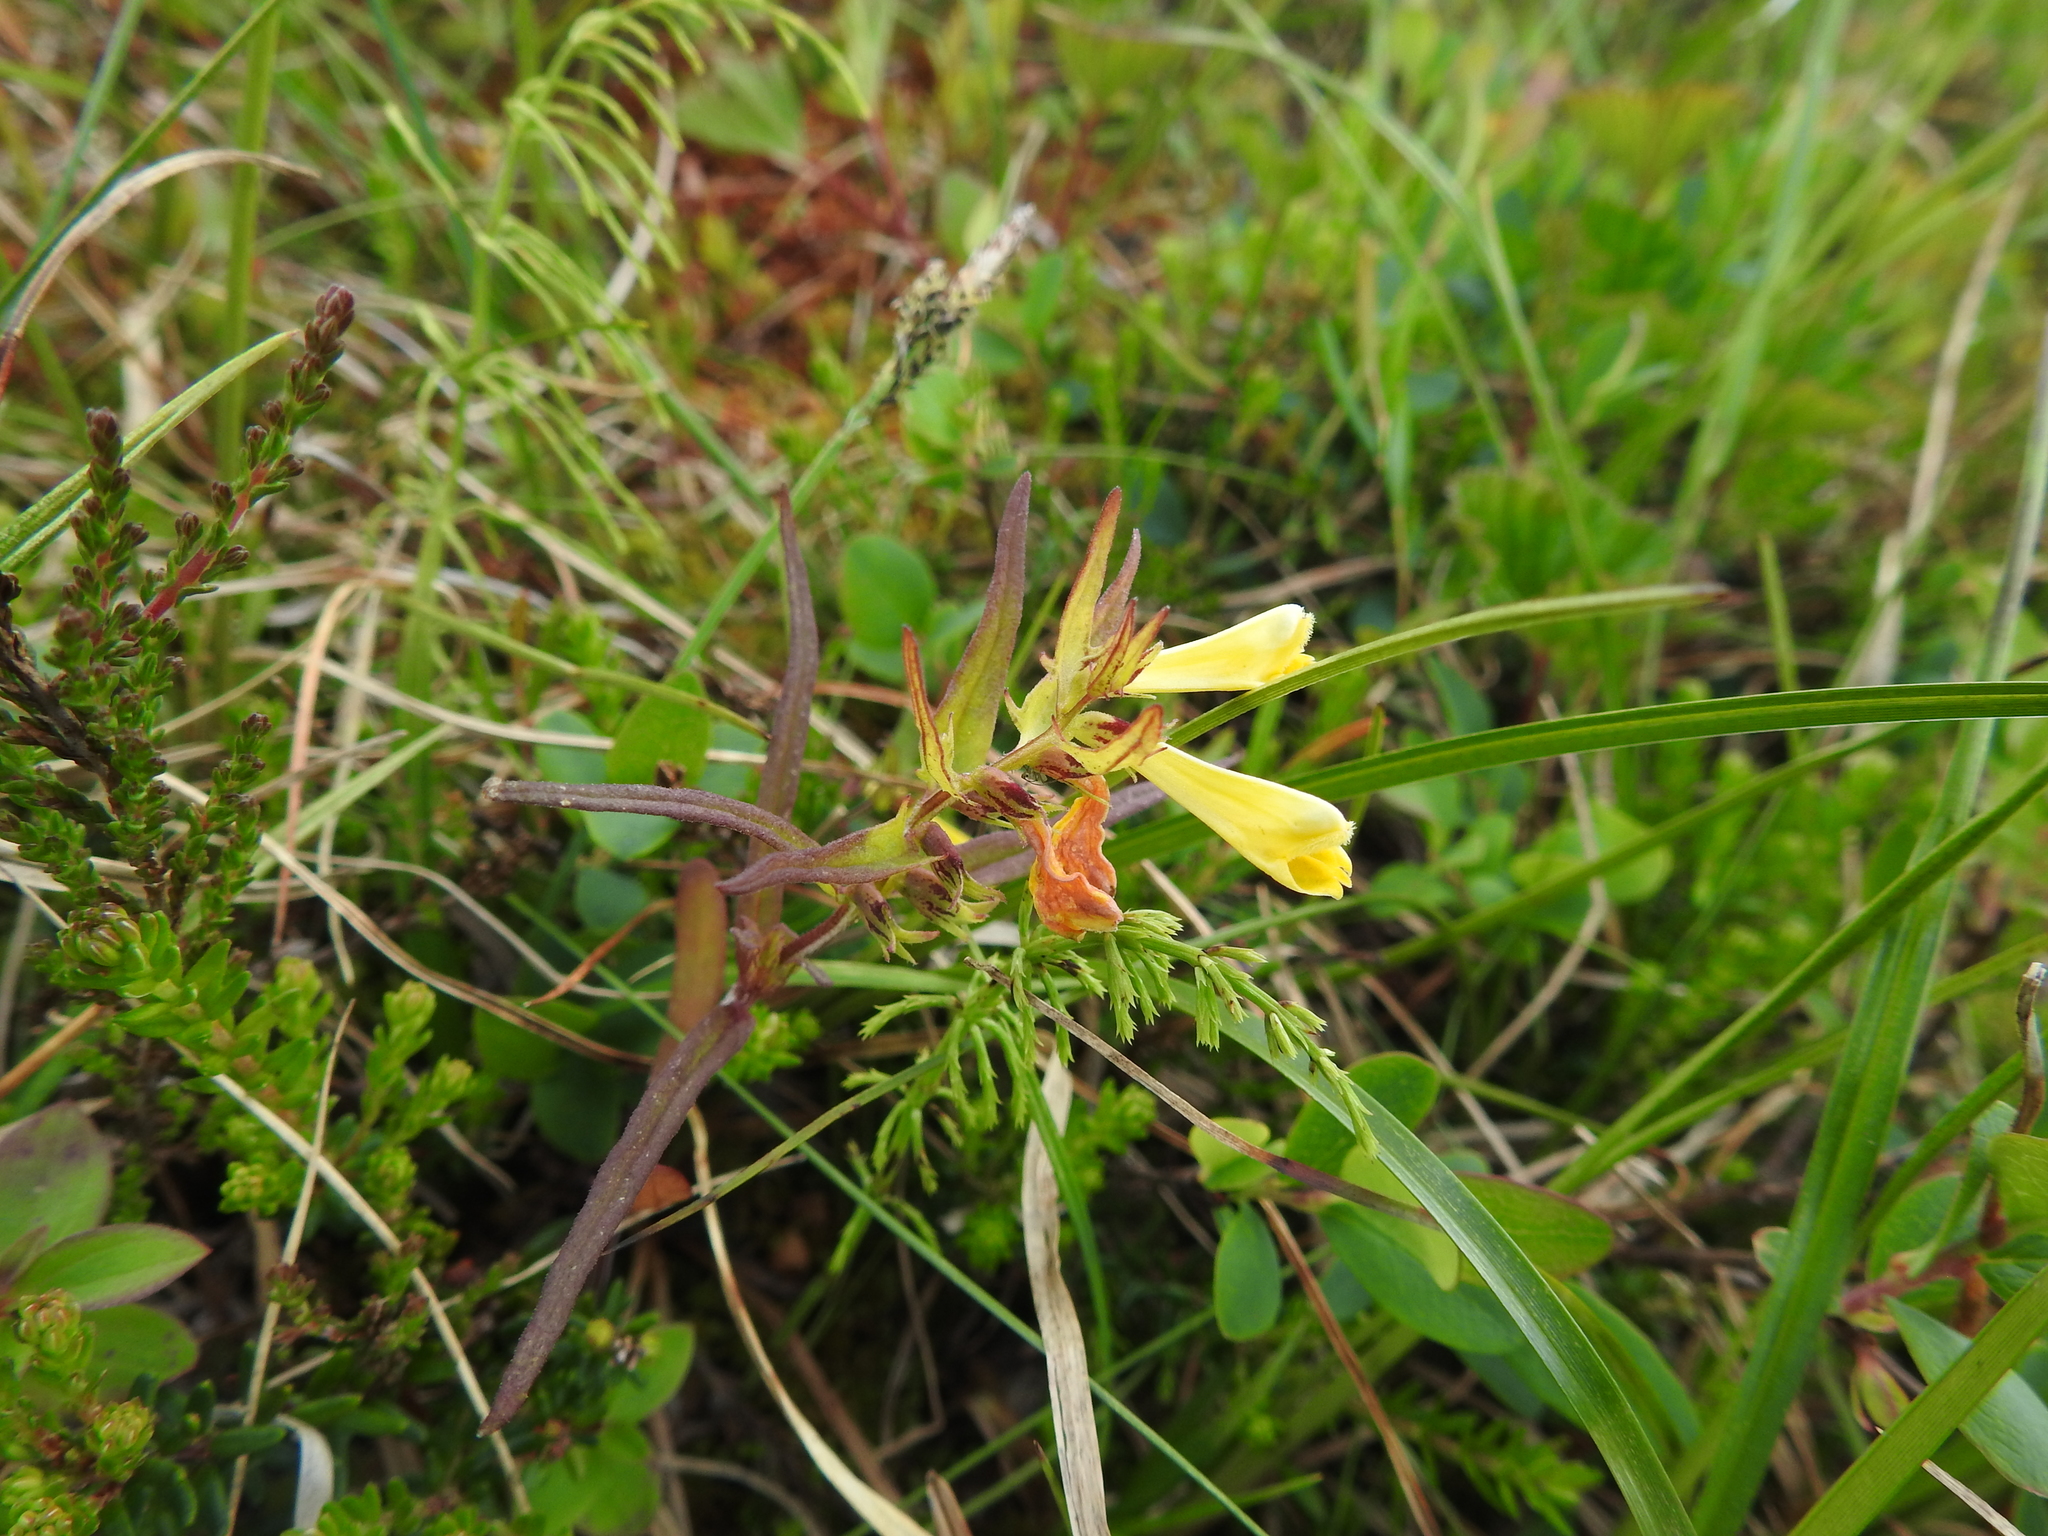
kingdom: Plantae
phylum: Tracheophyta
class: Magnoliopsida
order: Lamiales
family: Orobanchaceae
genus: Melampyrum
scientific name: Melampyrum pratense
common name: Common cow-wheat
